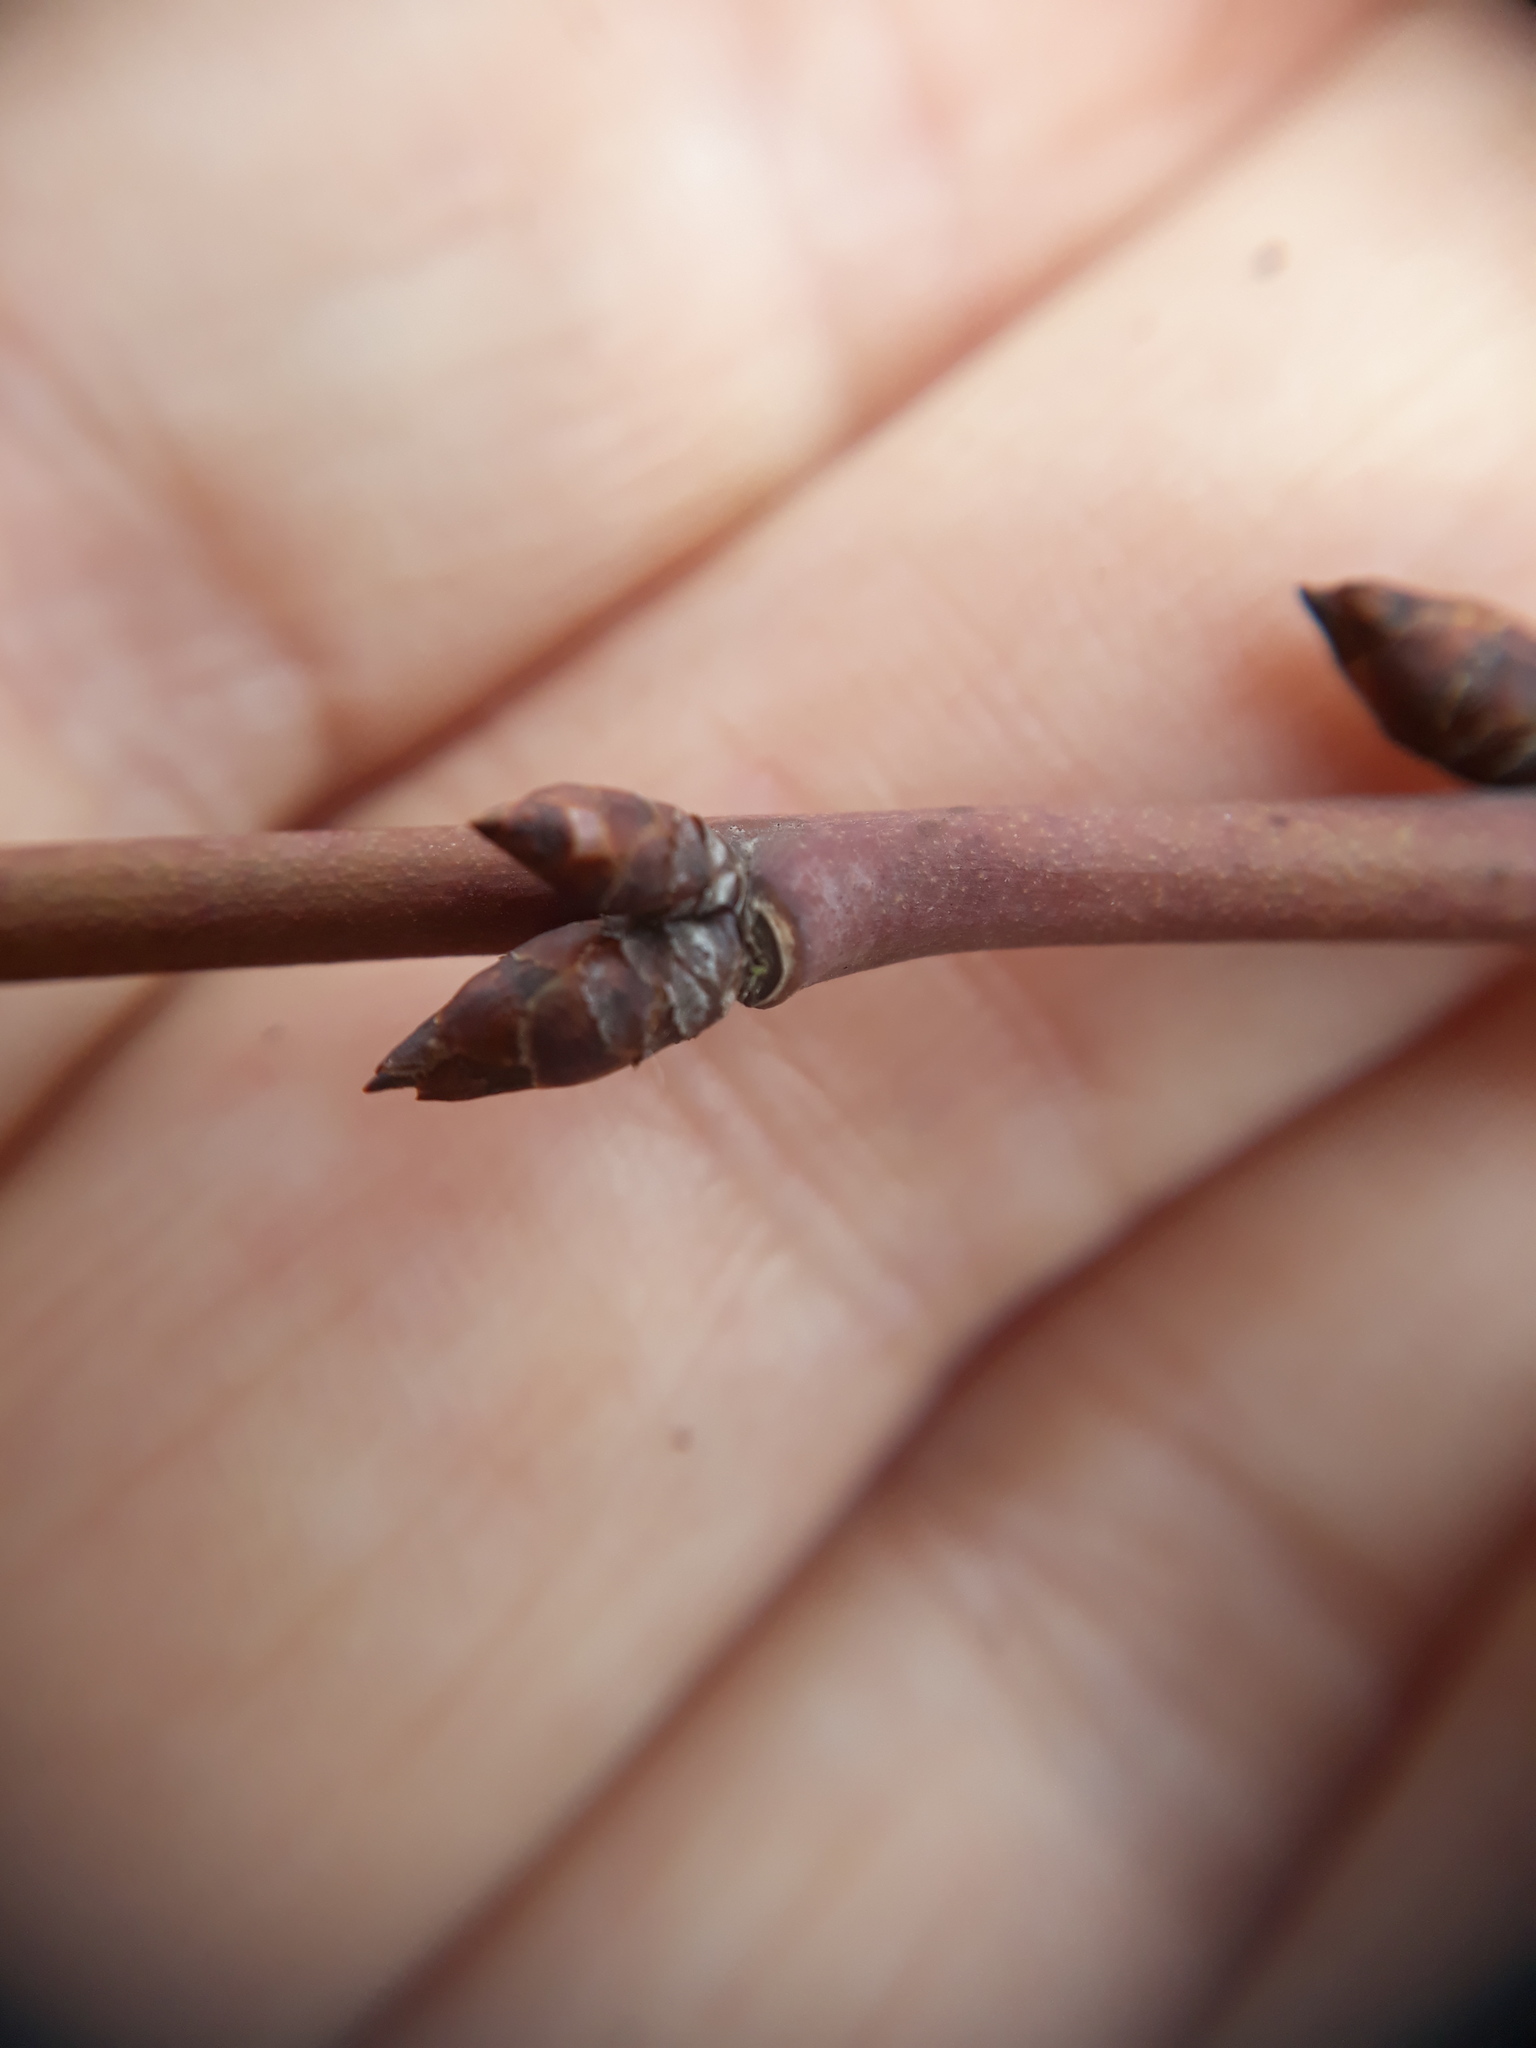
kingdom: Plantae
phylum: Tracheophyta
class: Magnoliopsida
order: Rosales
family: Rosaceae
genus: Prunus
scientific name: Prunus domestica
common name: Wild plum
